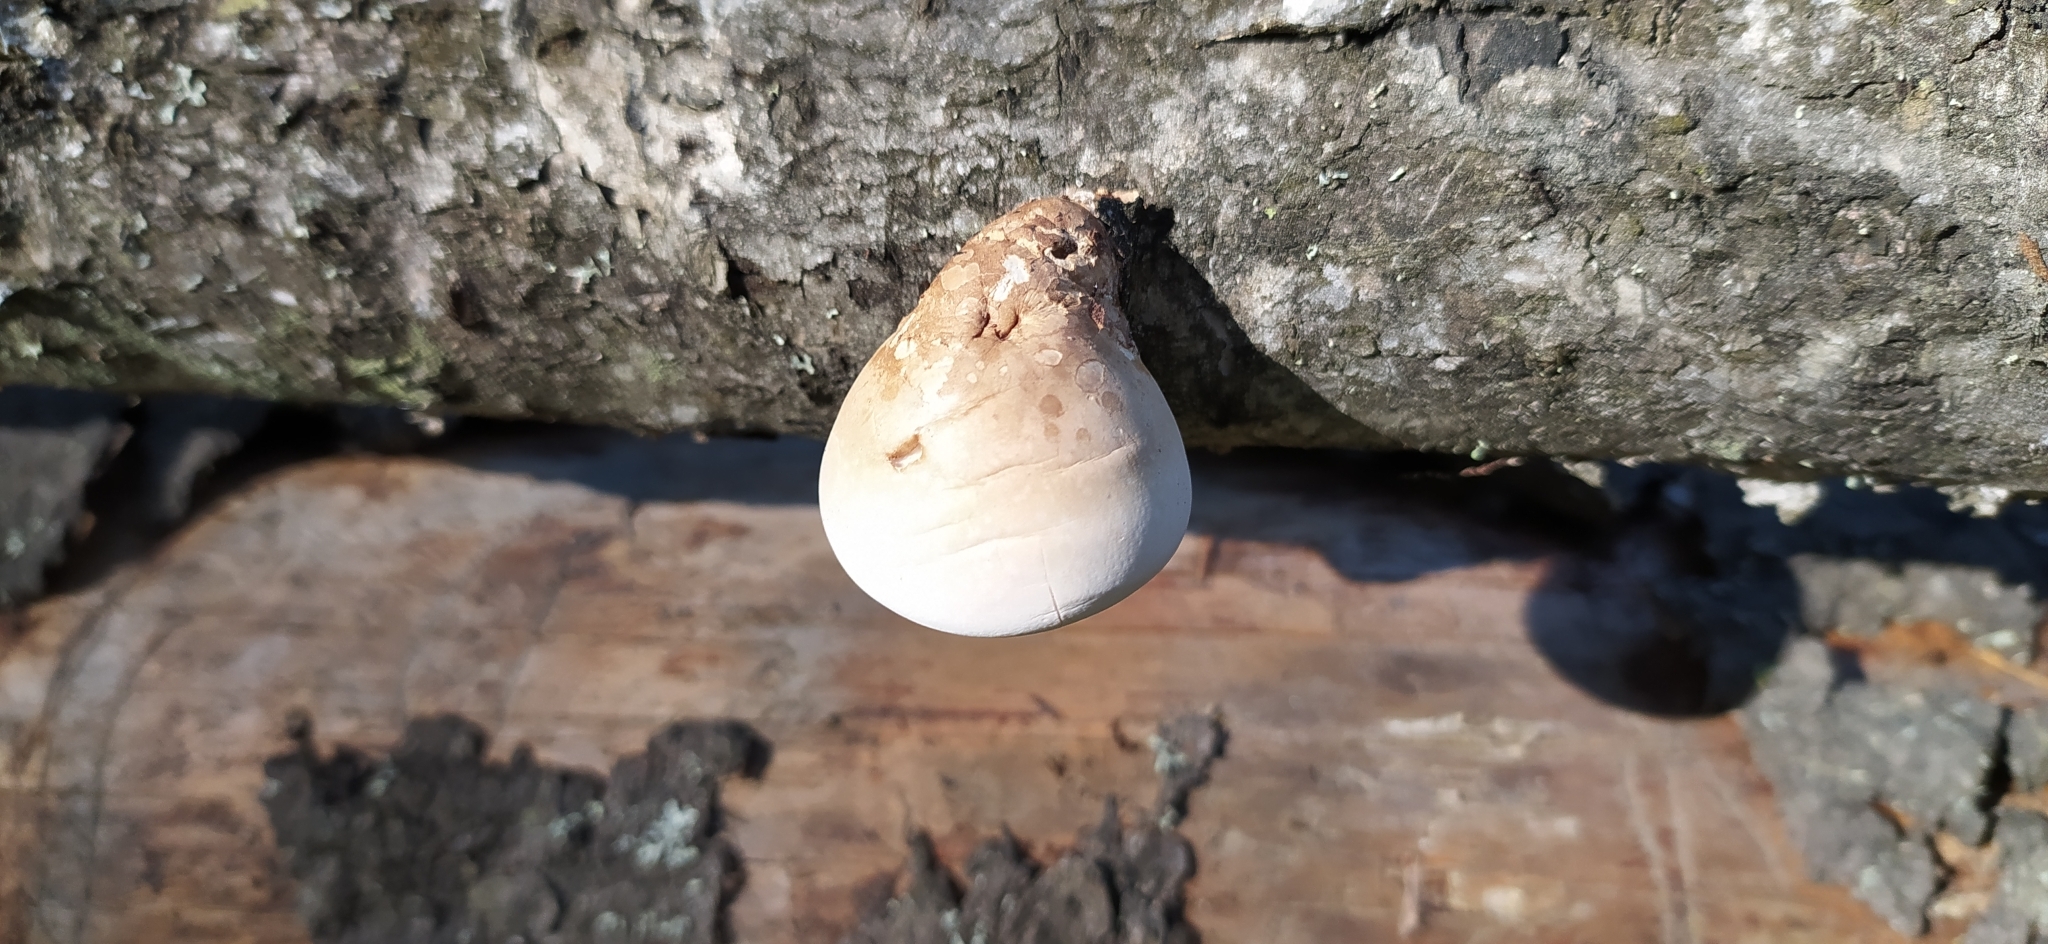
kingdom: Fungi
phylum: Basidiomycota
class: Agaricomycetes
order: Polyporales
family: Fomitopsidaceae
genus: Fomitopsis
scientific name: Fomitopsis betulina
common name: Birch polypore
